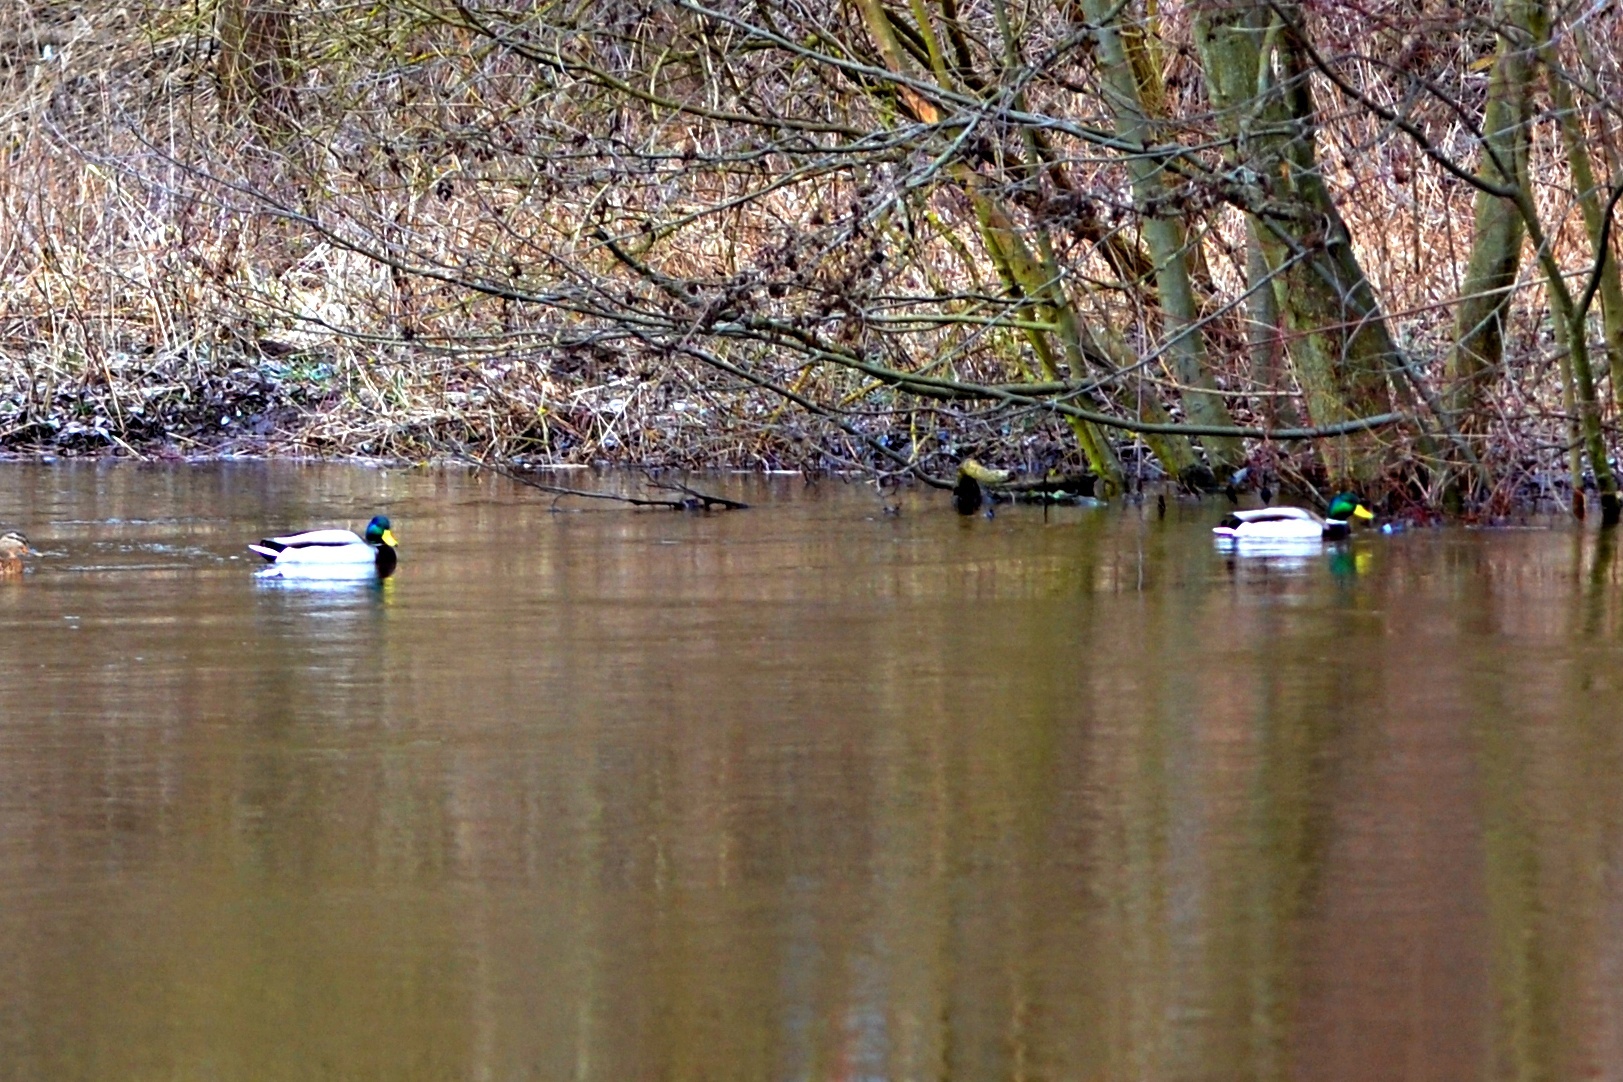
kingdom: Animalia
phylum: Chordata
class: Aves
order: Anseriformes
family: Anatidae
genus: Anas
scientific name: Anas platyrhynchos
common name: Mallard
